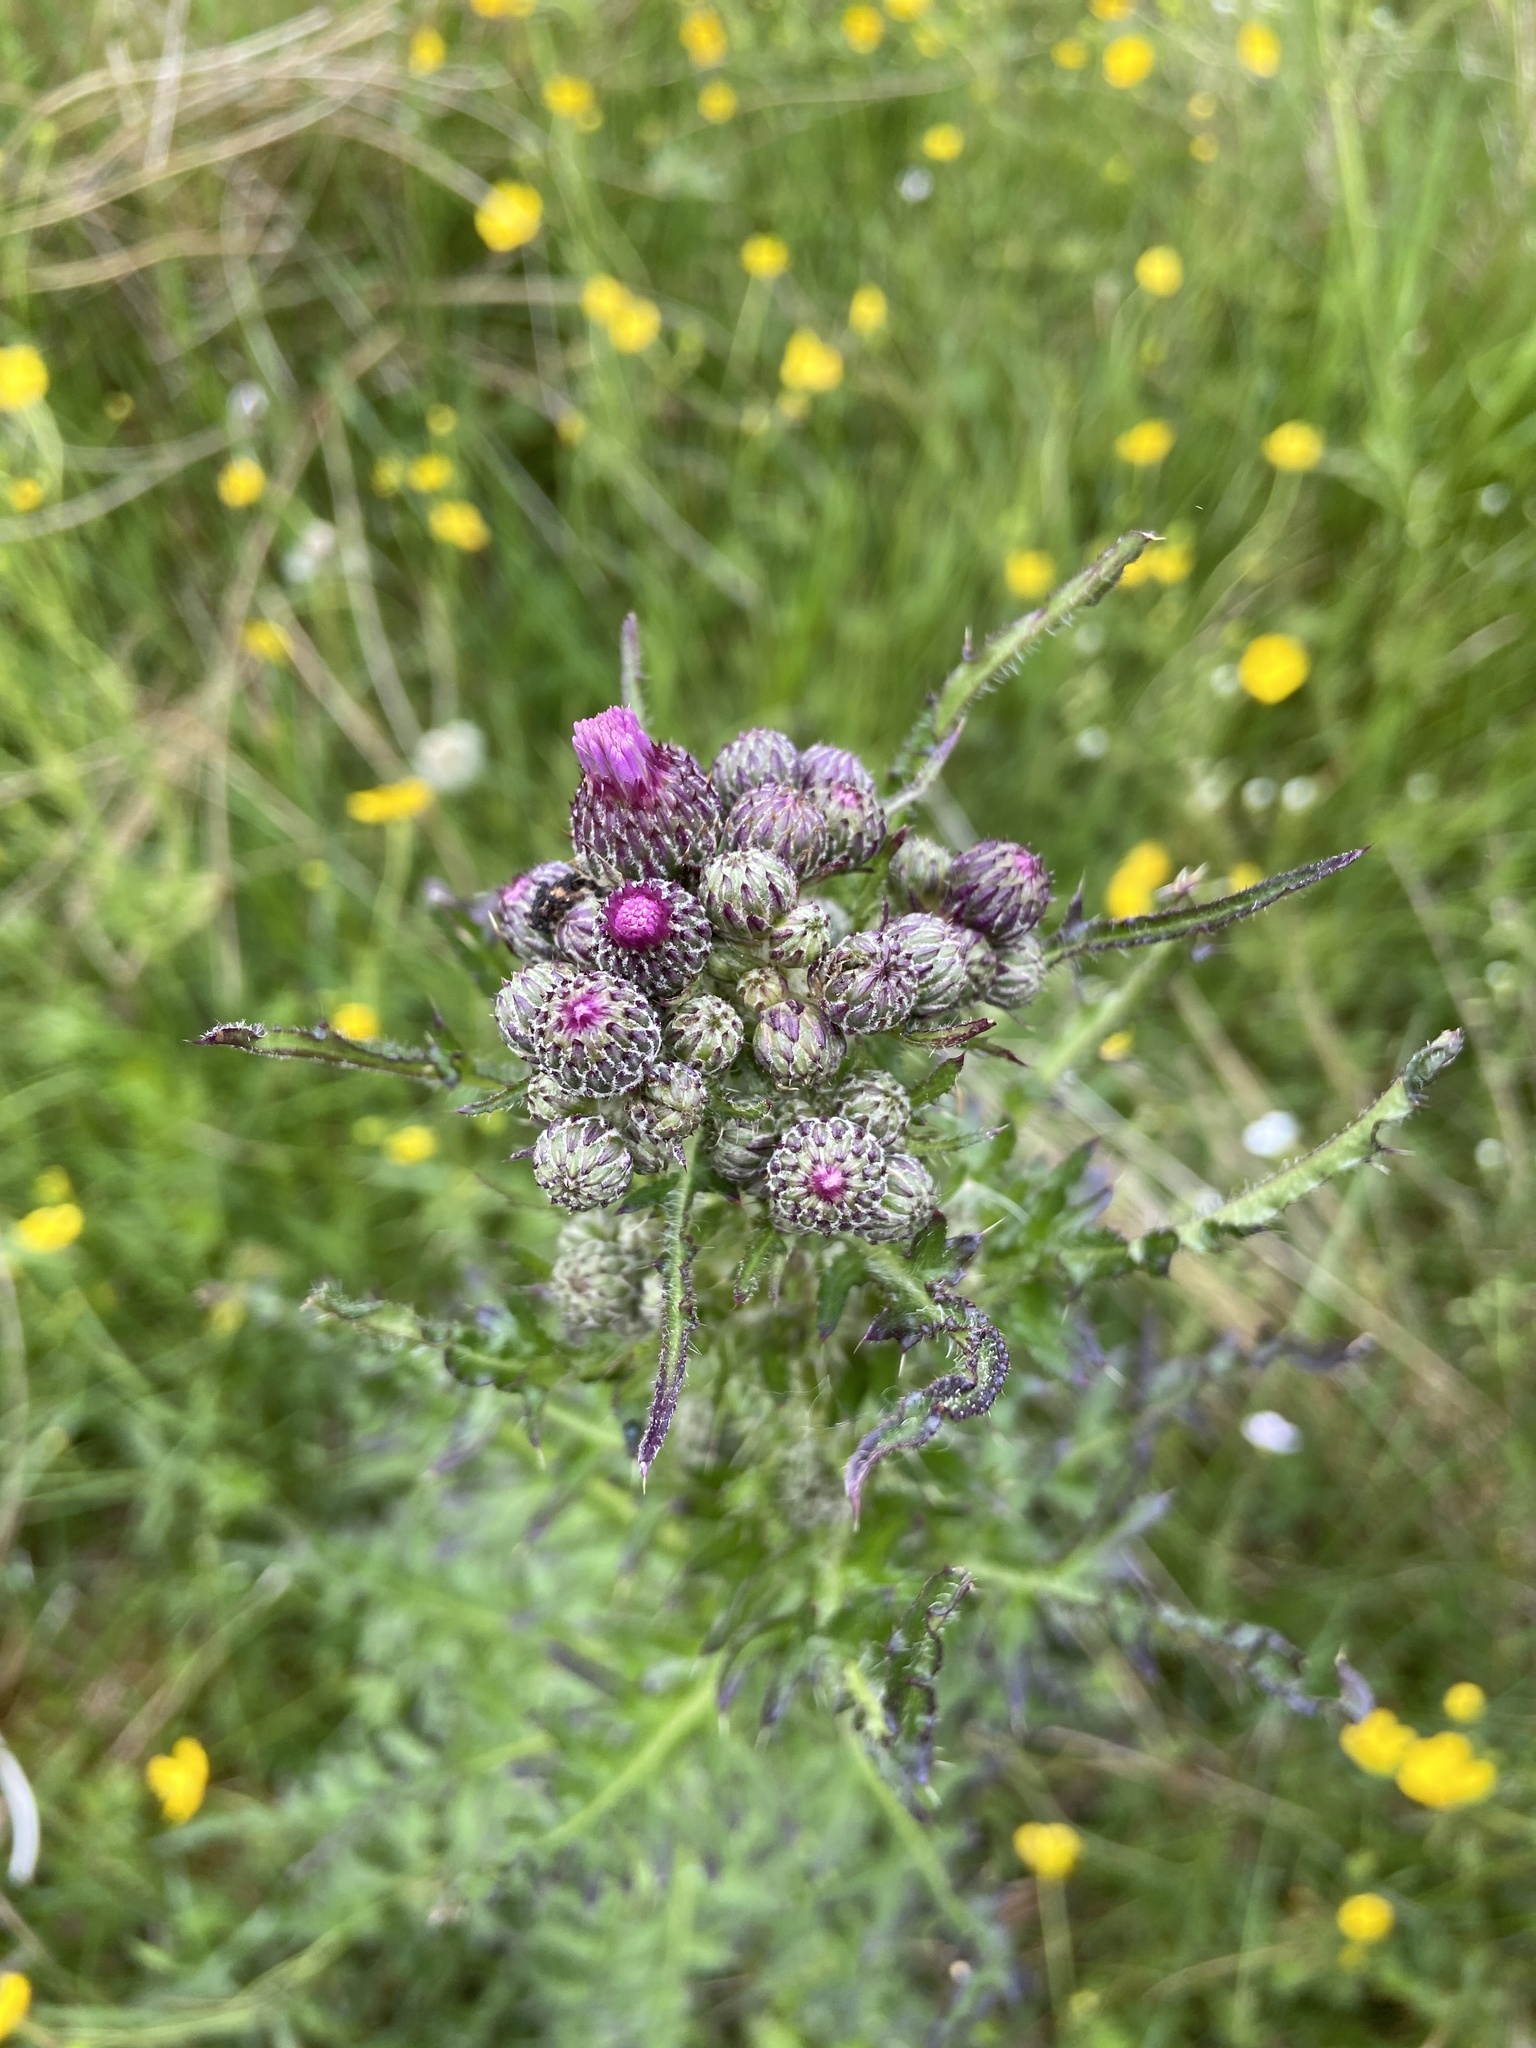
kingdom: Plantae
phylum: Tracheophyta
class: Magnoliopsida
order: Asterales
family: Asteraceae
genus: Cirsium
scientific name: Cirsium palustre
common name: Marsh thistle
